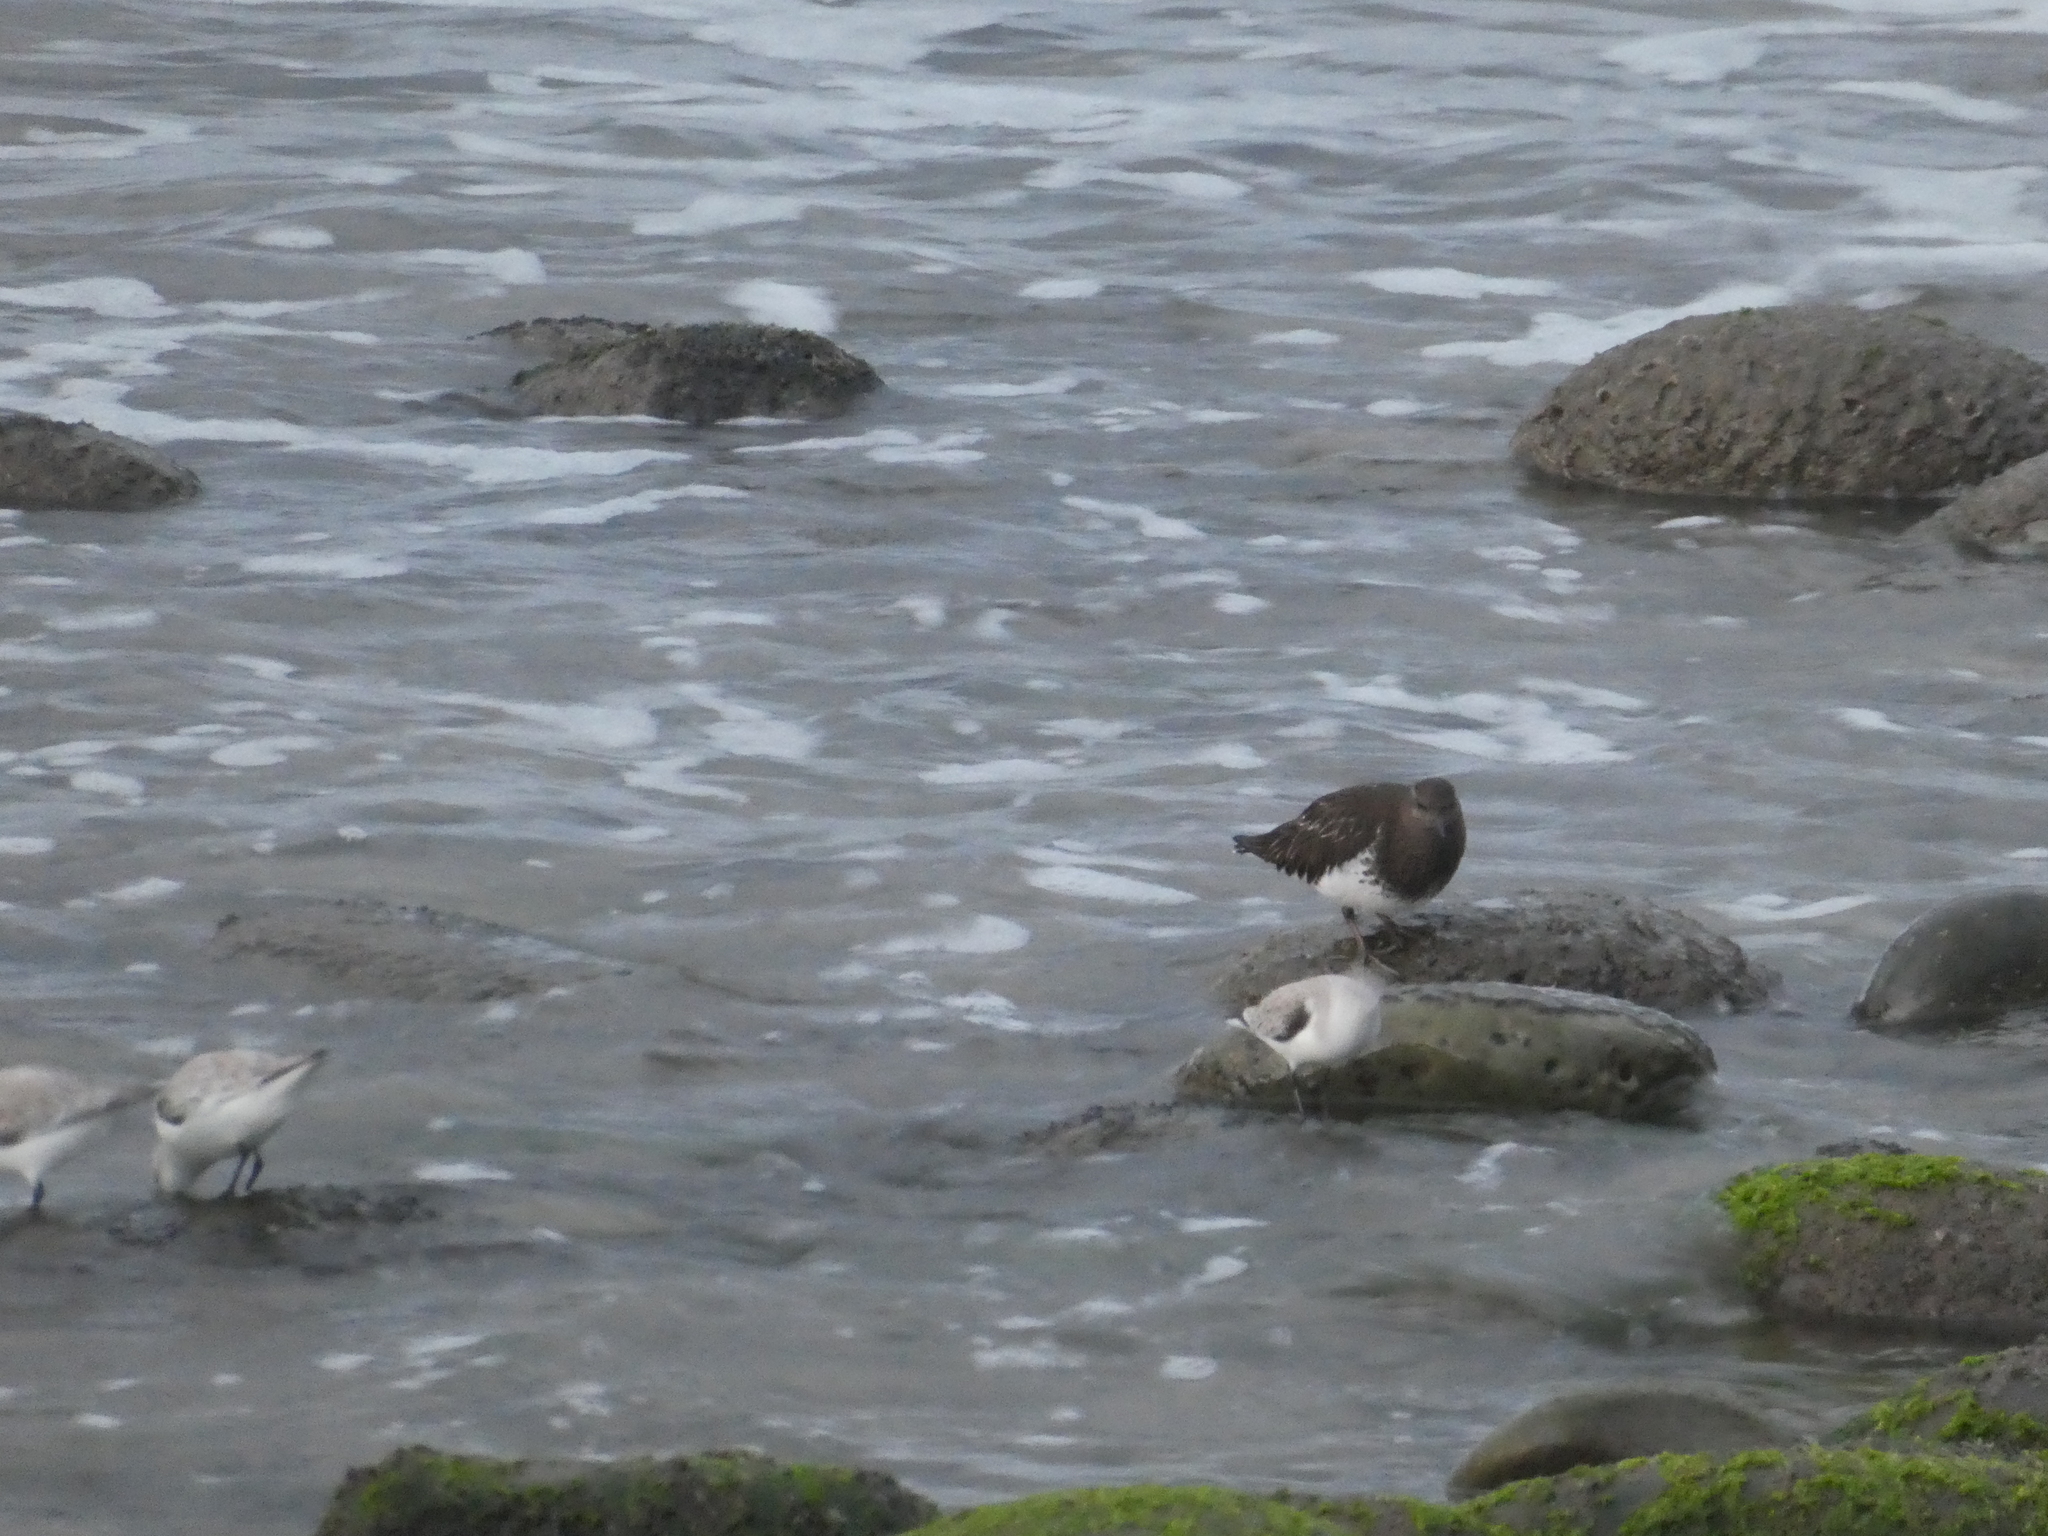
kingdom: Animalia
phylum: Chordata
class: Aves
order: Charadriiformes
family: Scolopacidae
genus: Arenaria
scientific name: Arenaria melanocephala
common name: Black turnstone
